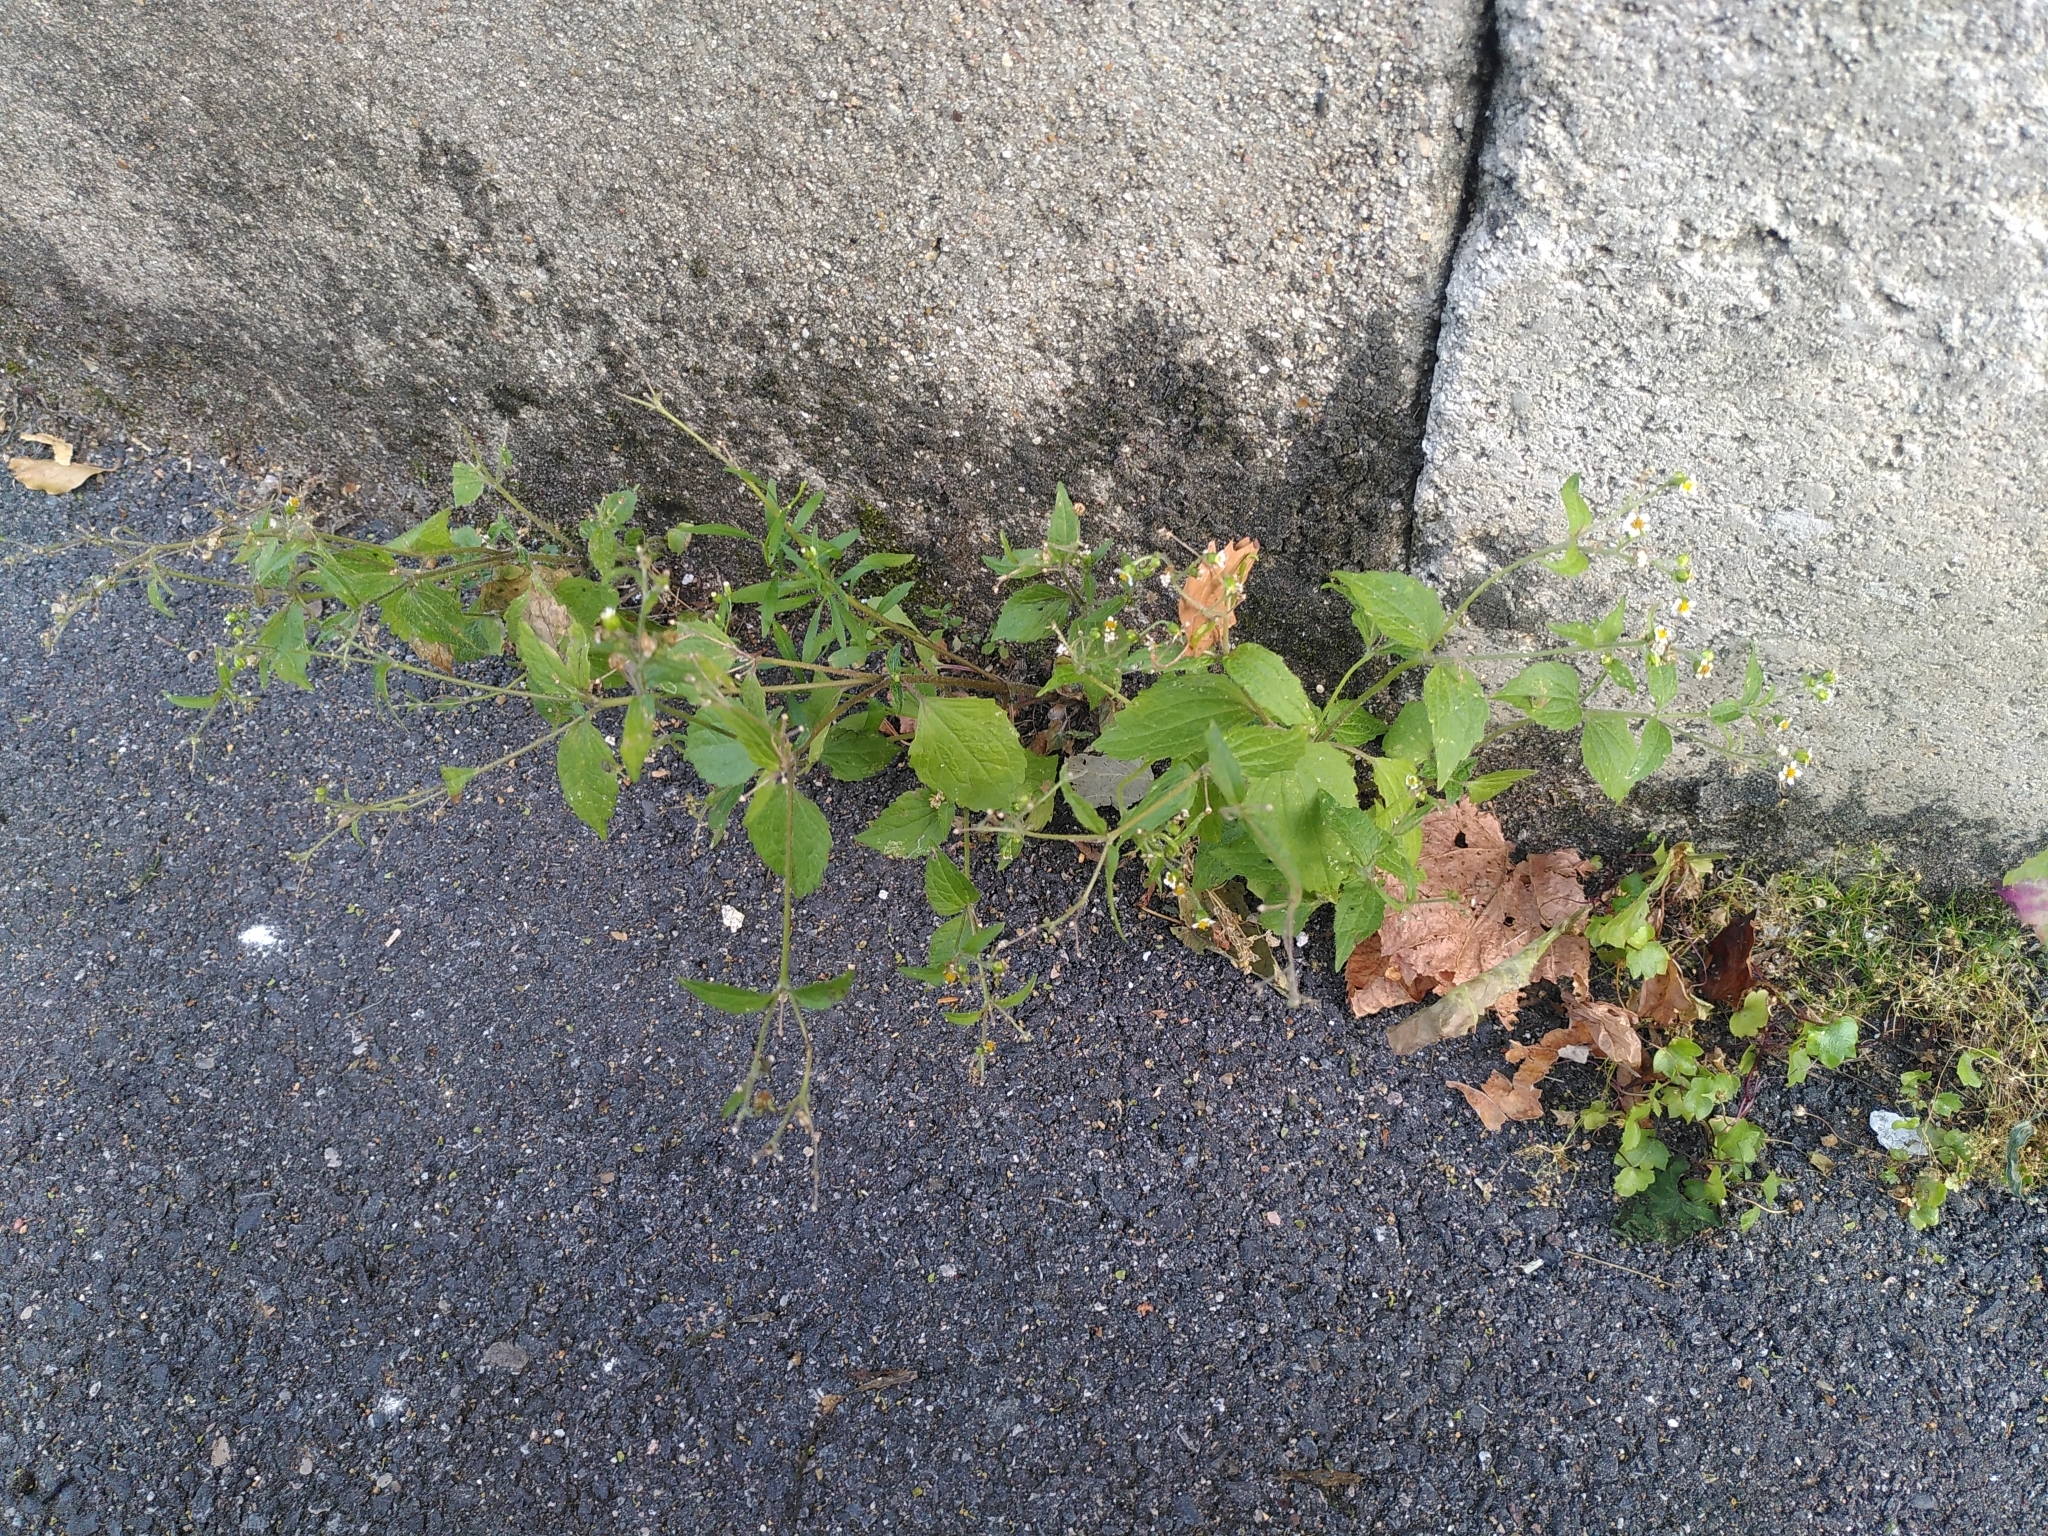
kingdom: Plantae
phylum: Tracheophyta
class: Magnoliopsida
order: Asterales
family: Asteraceae
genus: Galinsoga
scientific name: Galinsoga quadriradiata
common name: Shaggy soldier
